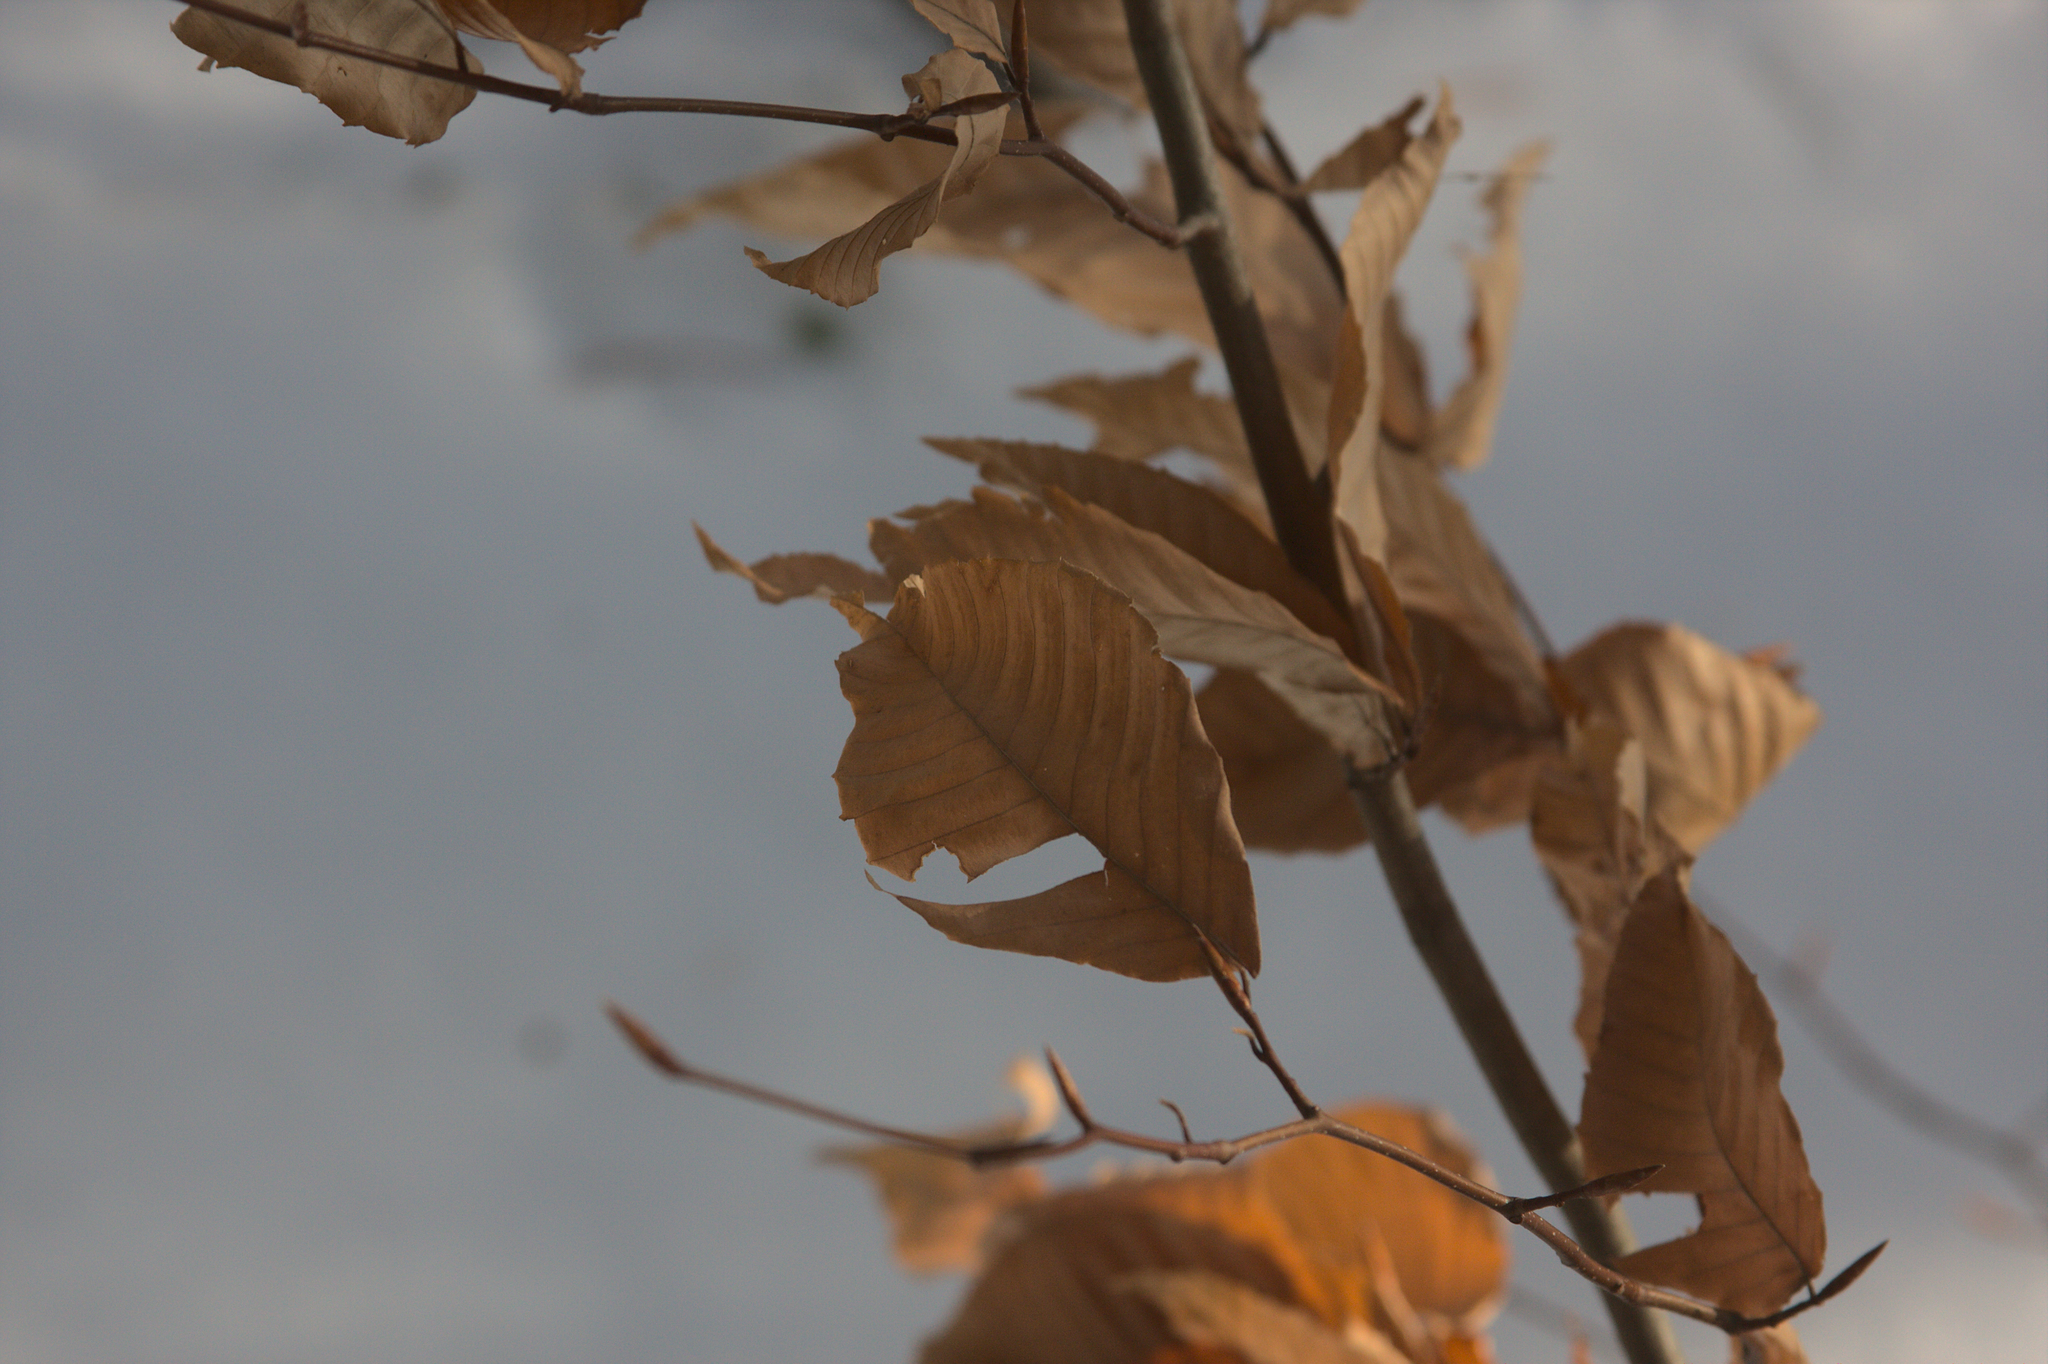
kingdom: Plantae
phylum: Tracheophyta
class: Magnoliopsida
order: Fagales
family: Fagaceae
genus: Fagus
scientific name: Fagus grandifolia
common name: American beech
